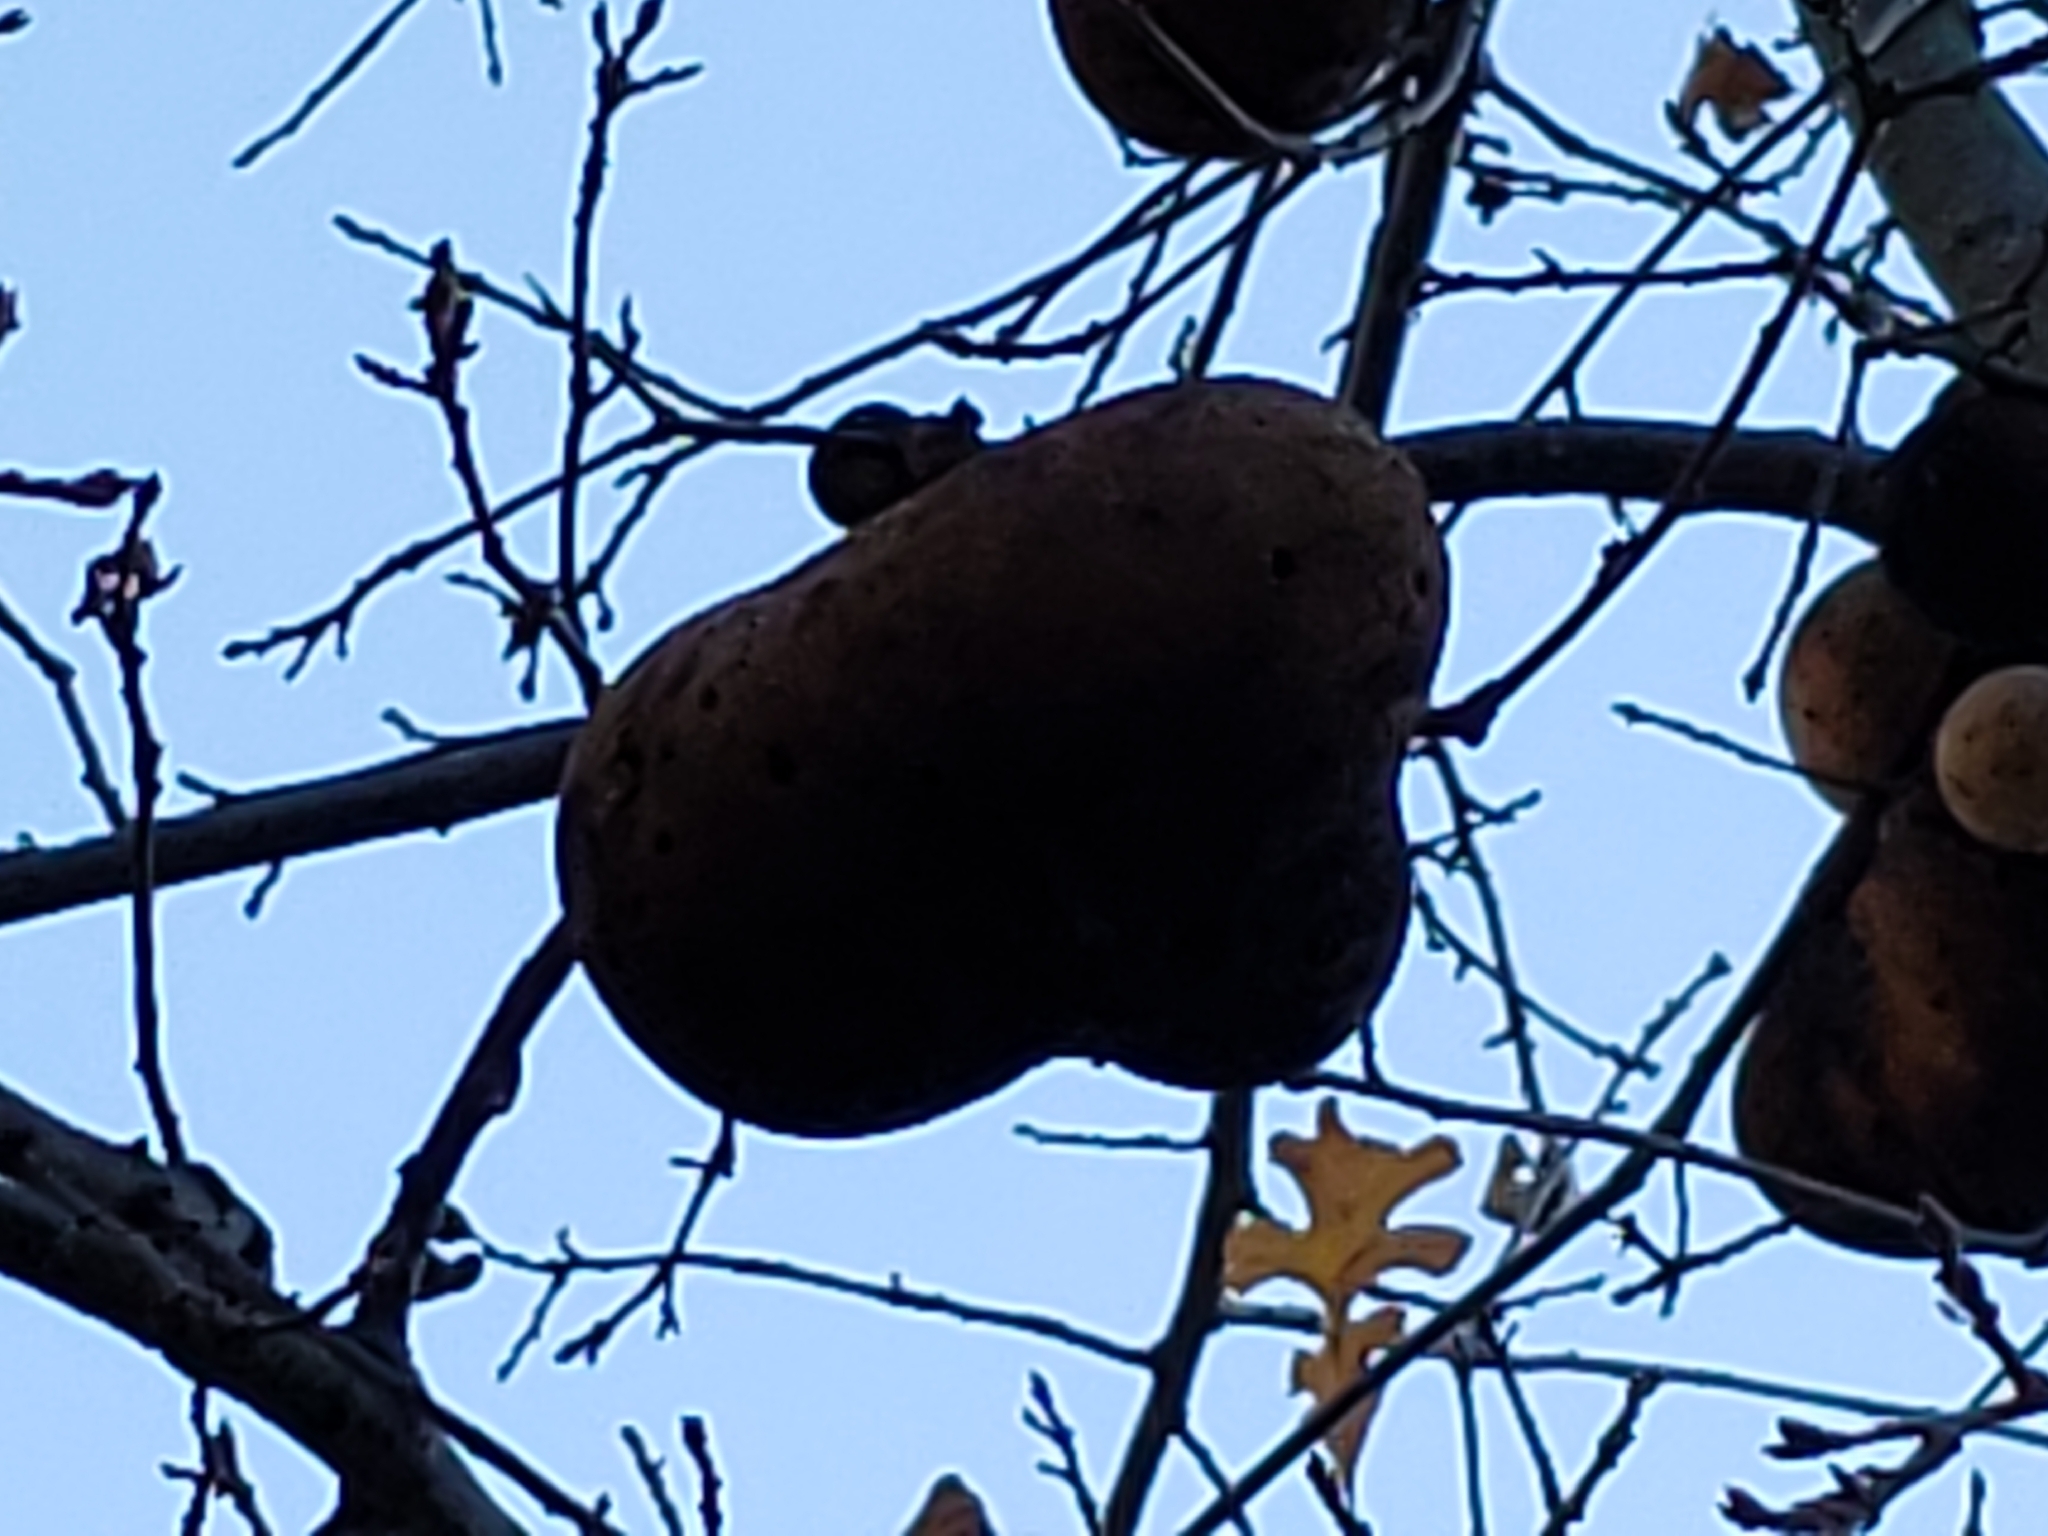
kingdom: Animalia
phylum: Arthropoda
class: Insecta
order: Hymenoptera
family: Cynipidae
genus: Andricus
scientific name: Andricus quercuscalifornicus
